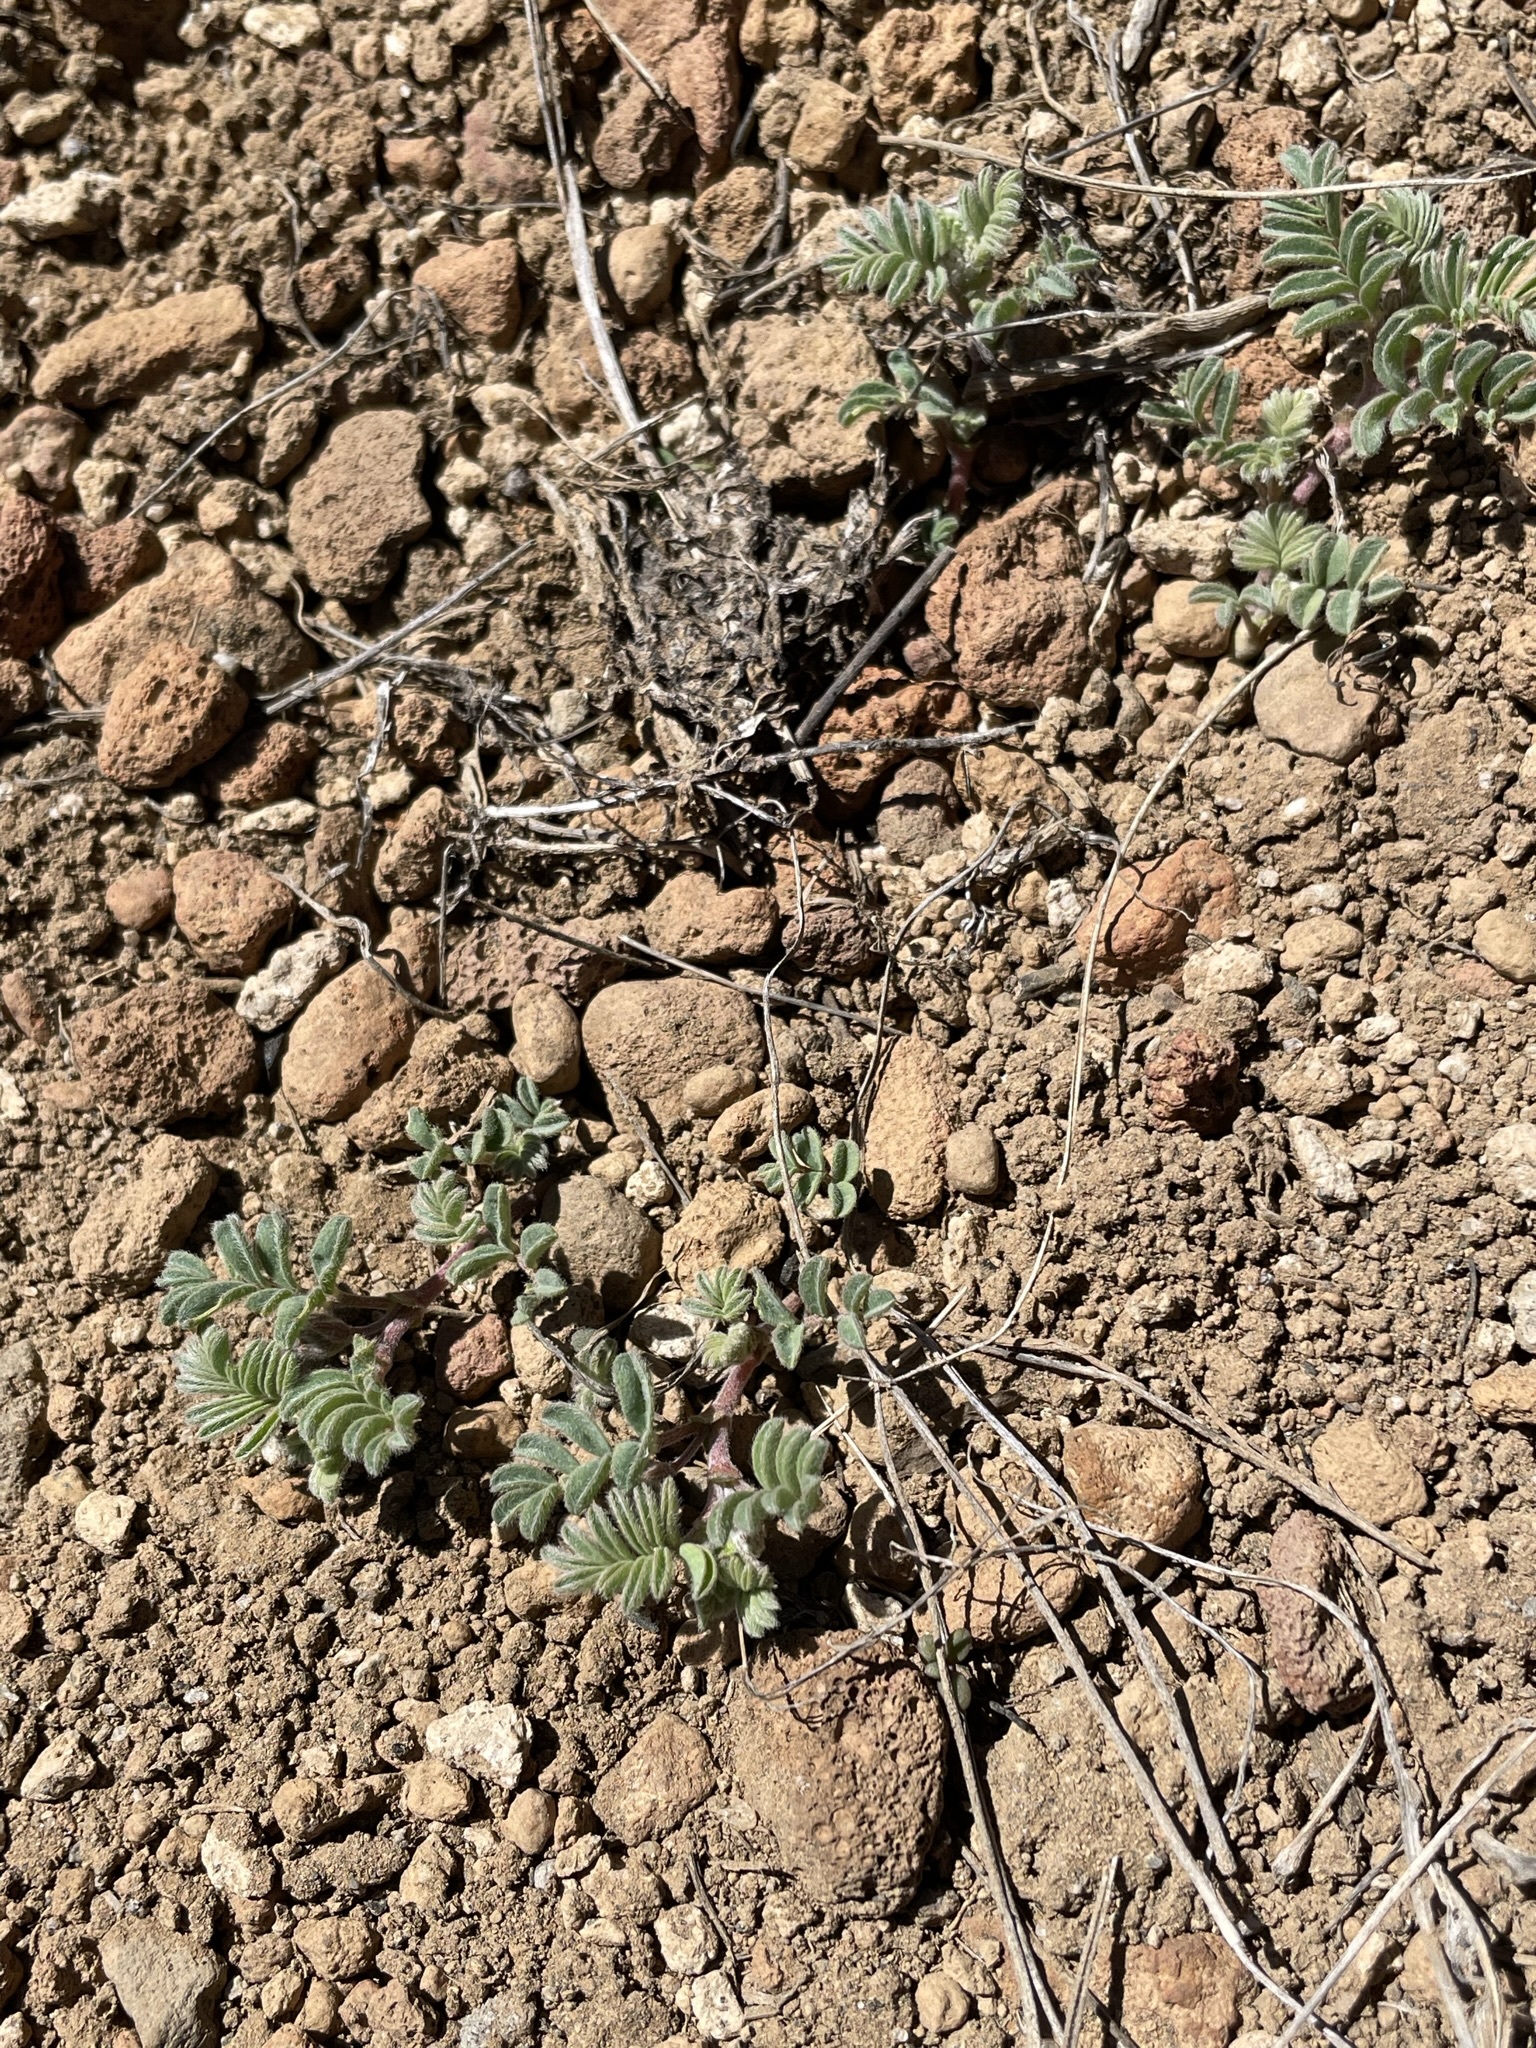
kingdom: Plantae
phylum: Tracheophyta
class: Magnoliopsida
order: Fabales
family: Fabaceae
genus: Astragalus
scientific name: Astragalus pulsiferae
